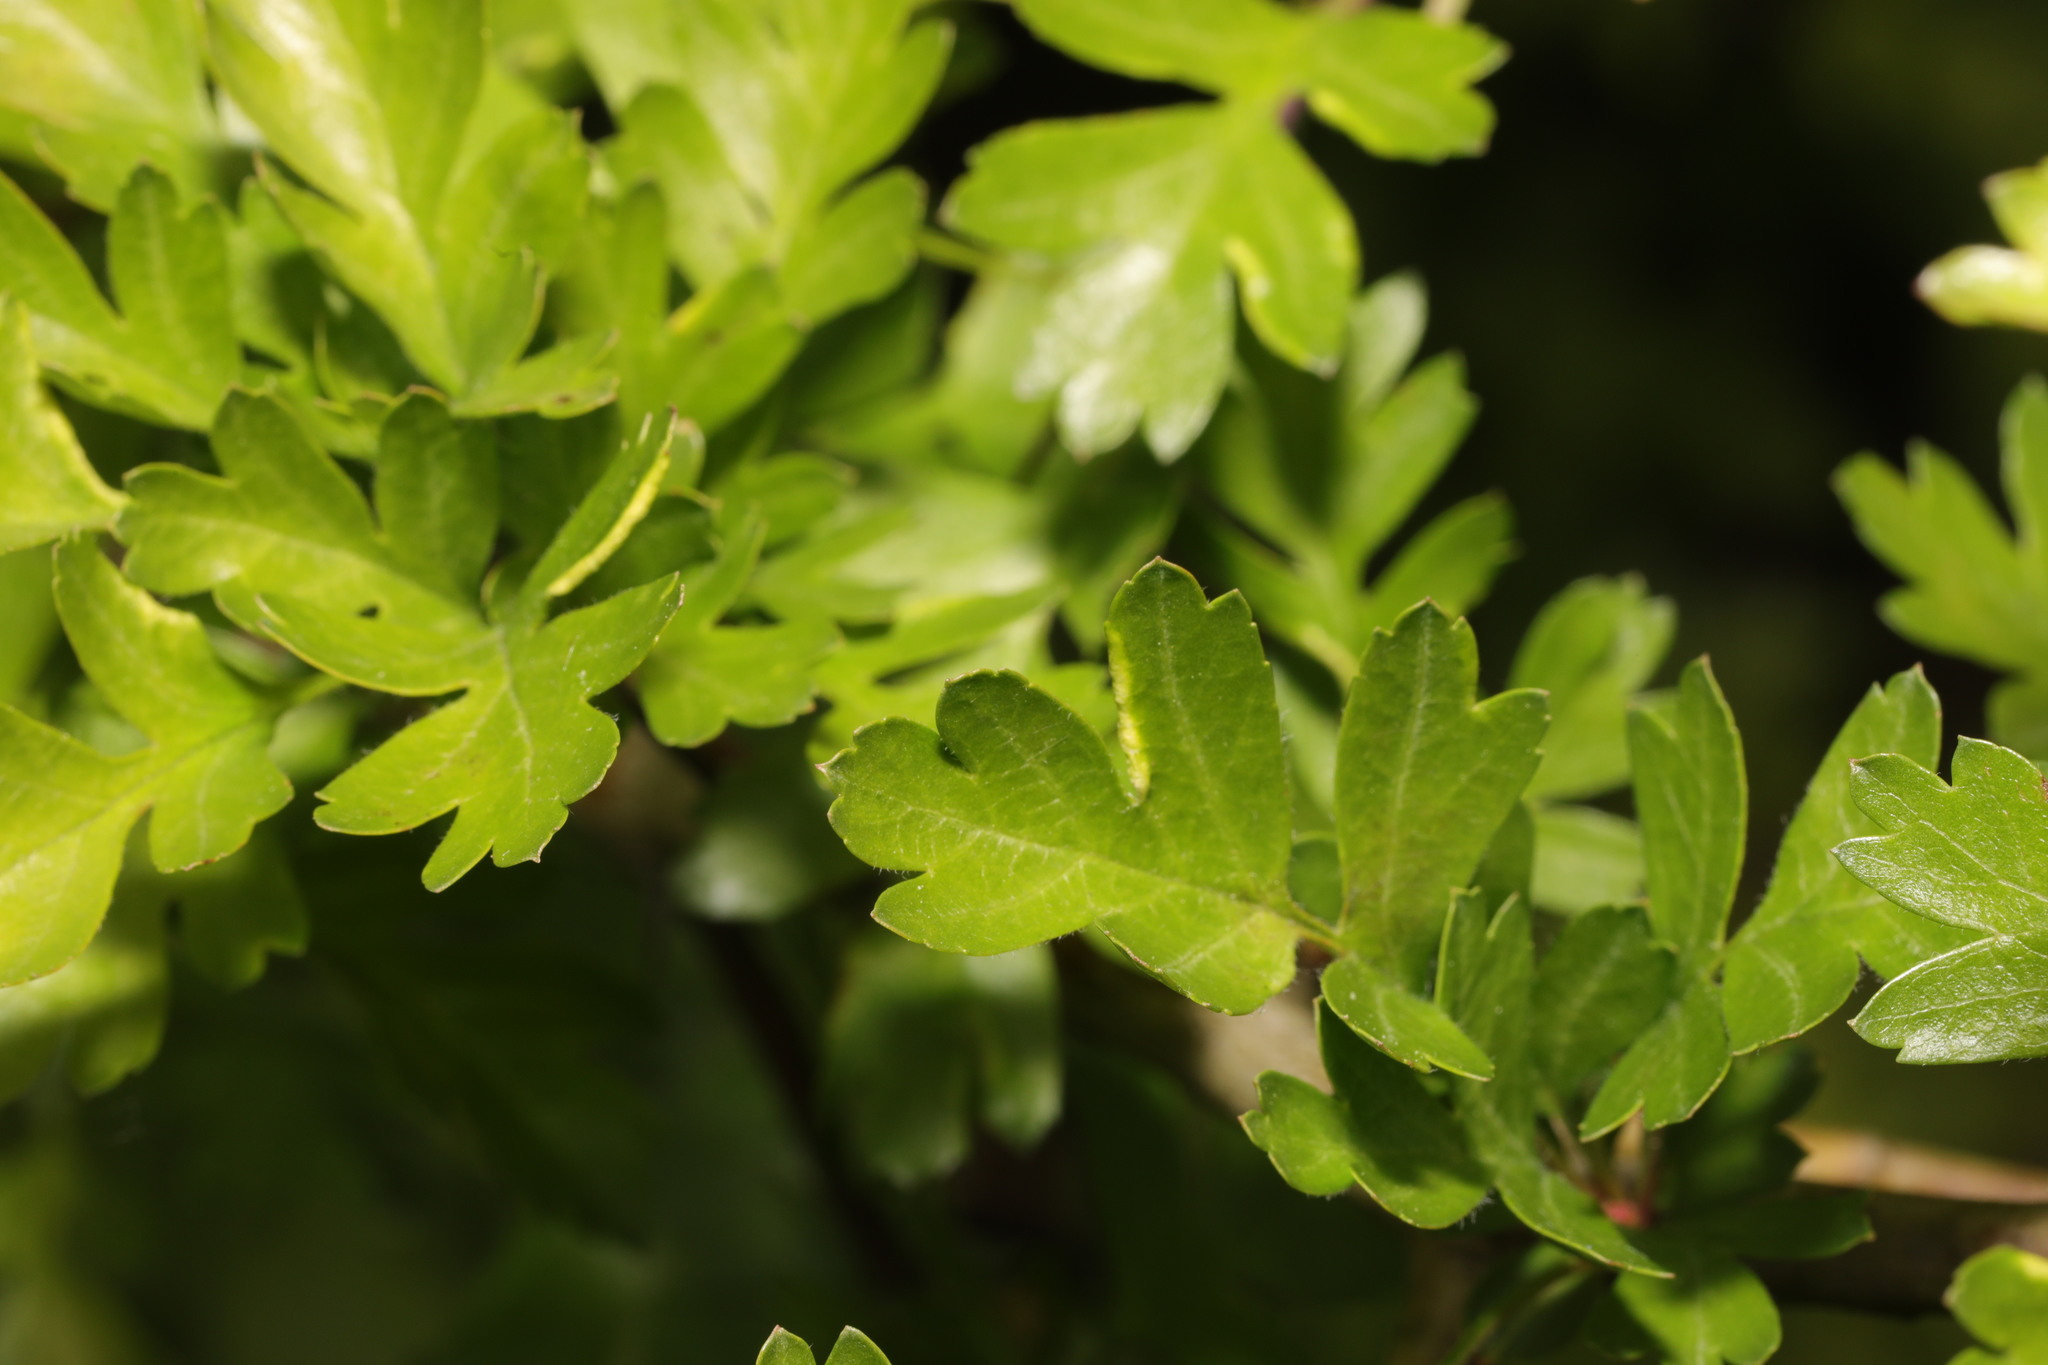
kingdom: Animalia
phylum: Arthropoda
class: Arachnida
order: Trombidiformes
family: Eriophyidae
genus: Phyllocoptes
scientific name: Phyllocoptes goniothorax
